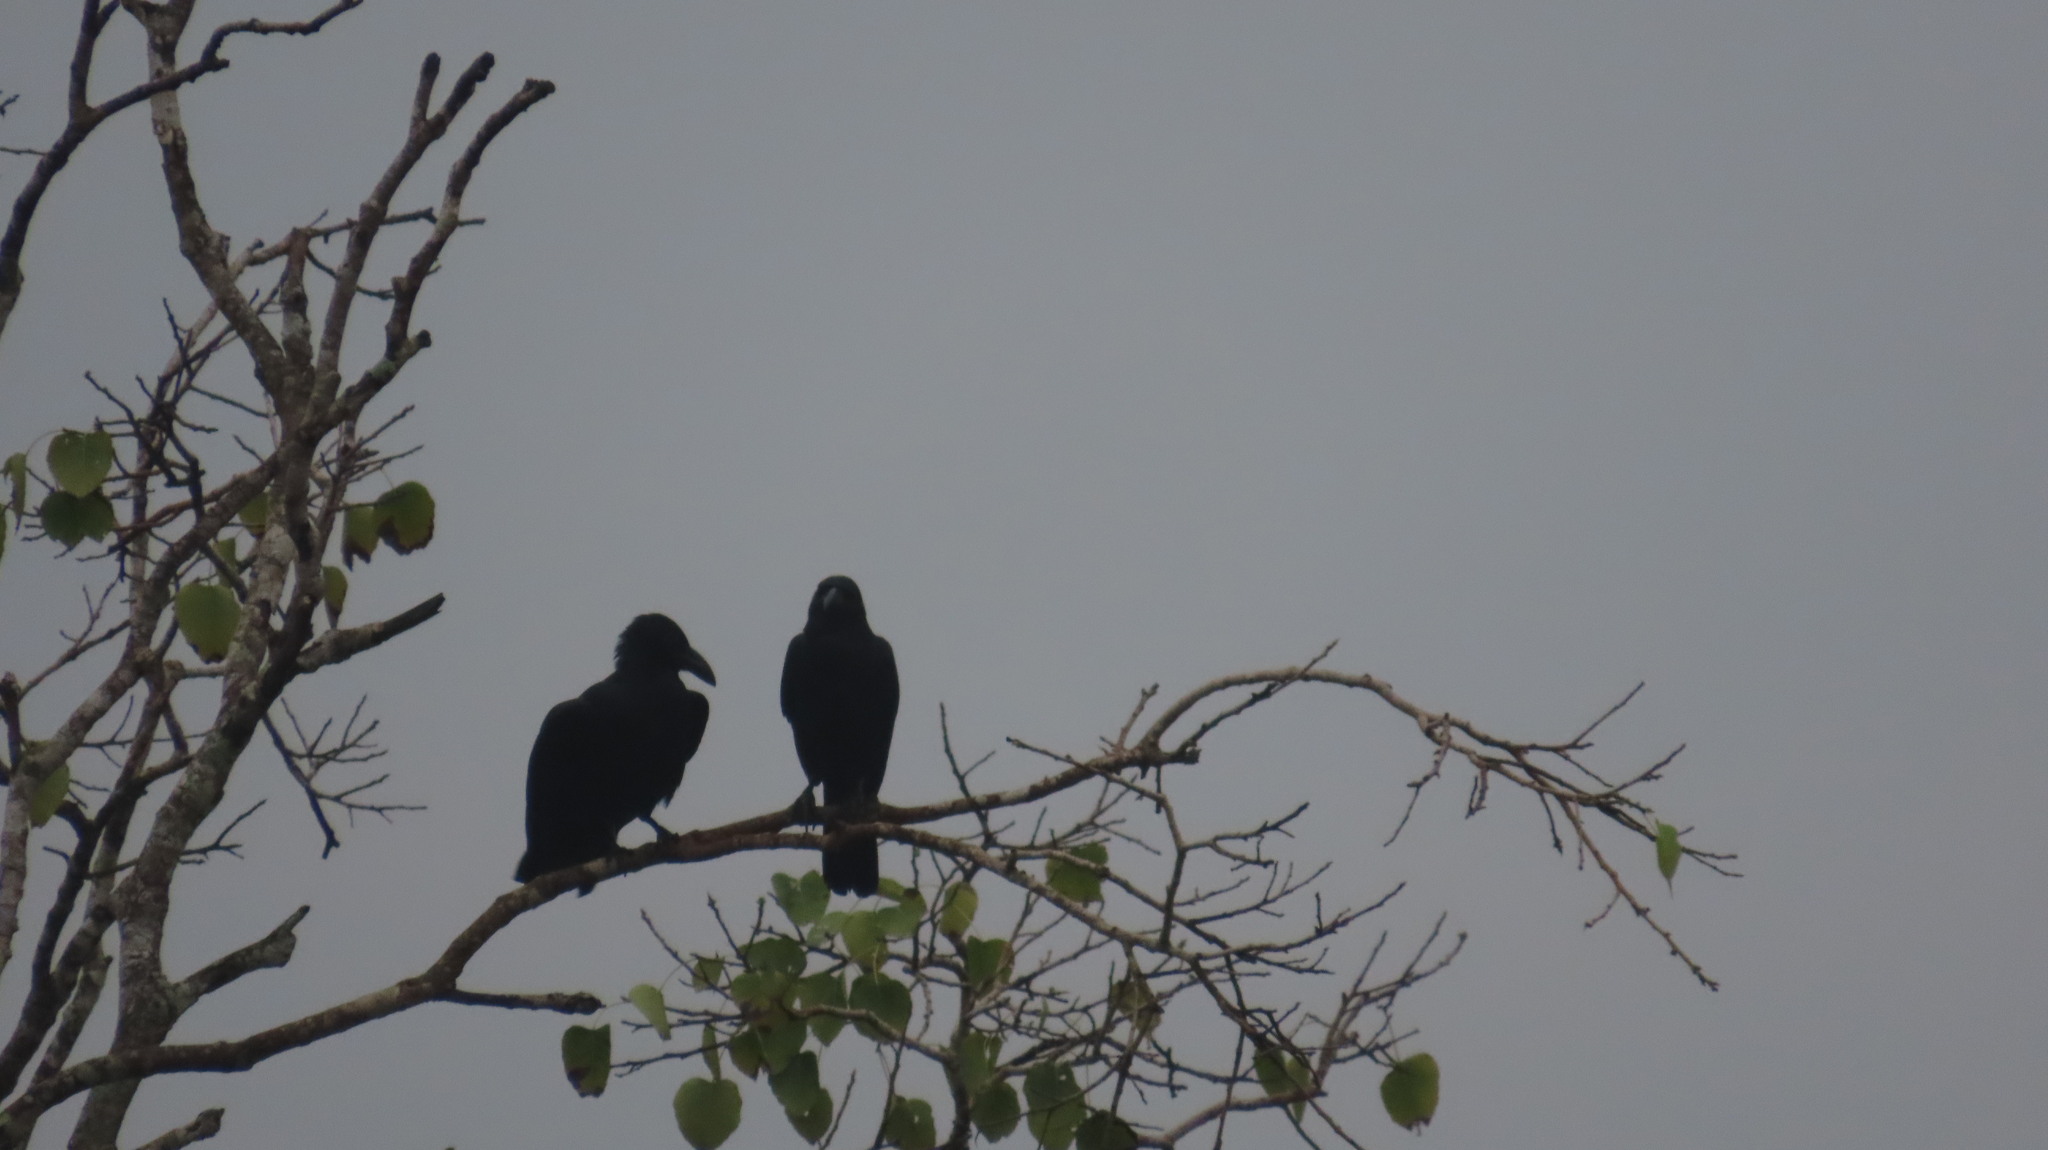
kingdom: Animalia
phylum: Chordata
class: Aves
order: Passeriformes
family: Corvidae
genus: Corvus
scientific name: Corvus macrorhynchos
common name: Large-billed crow
